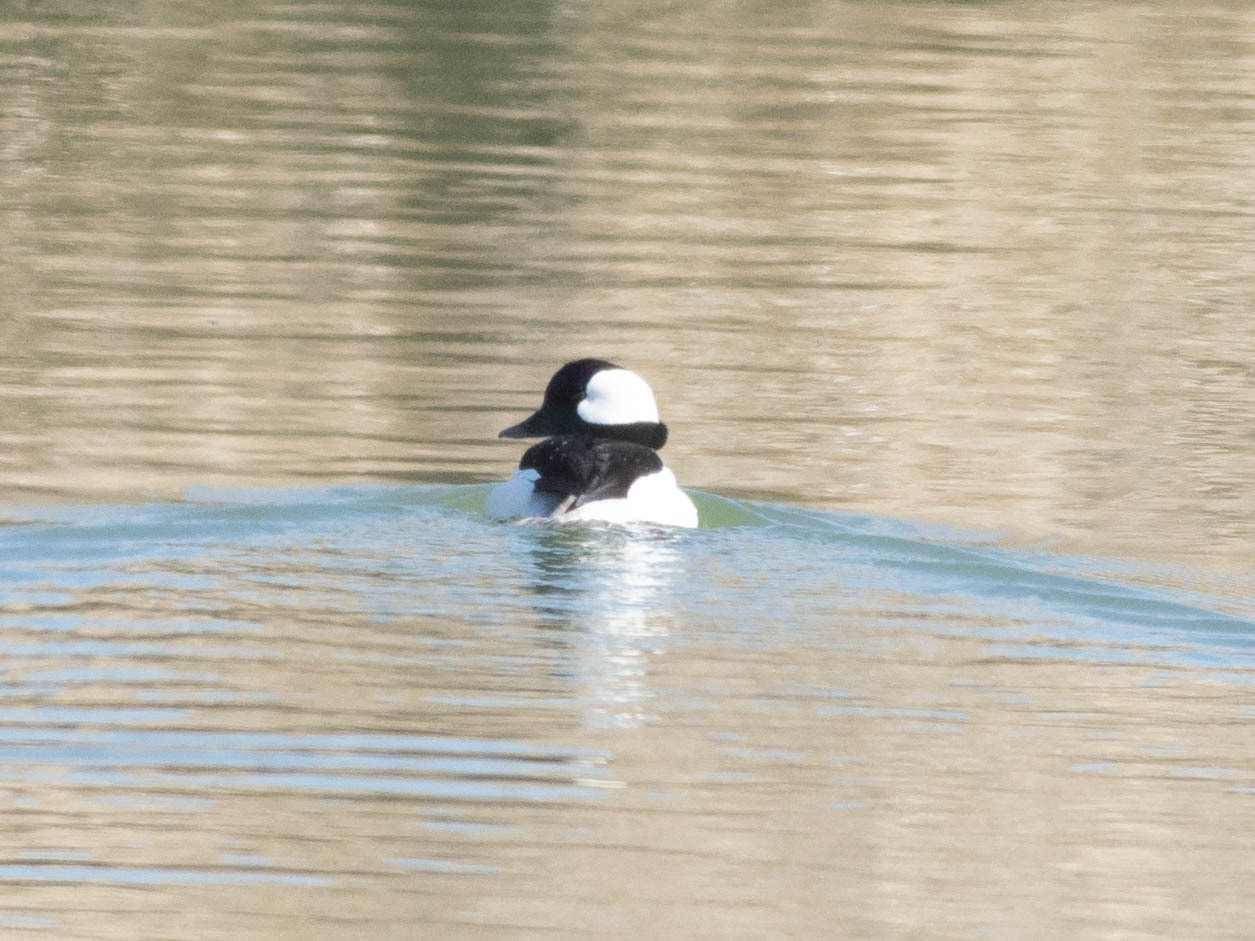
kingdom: Animalia
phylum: Chordata
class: Aves
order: Anseriformes
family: Anatidae
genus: Bucephala
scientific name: Bucephala albeola
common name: Bufflehead
